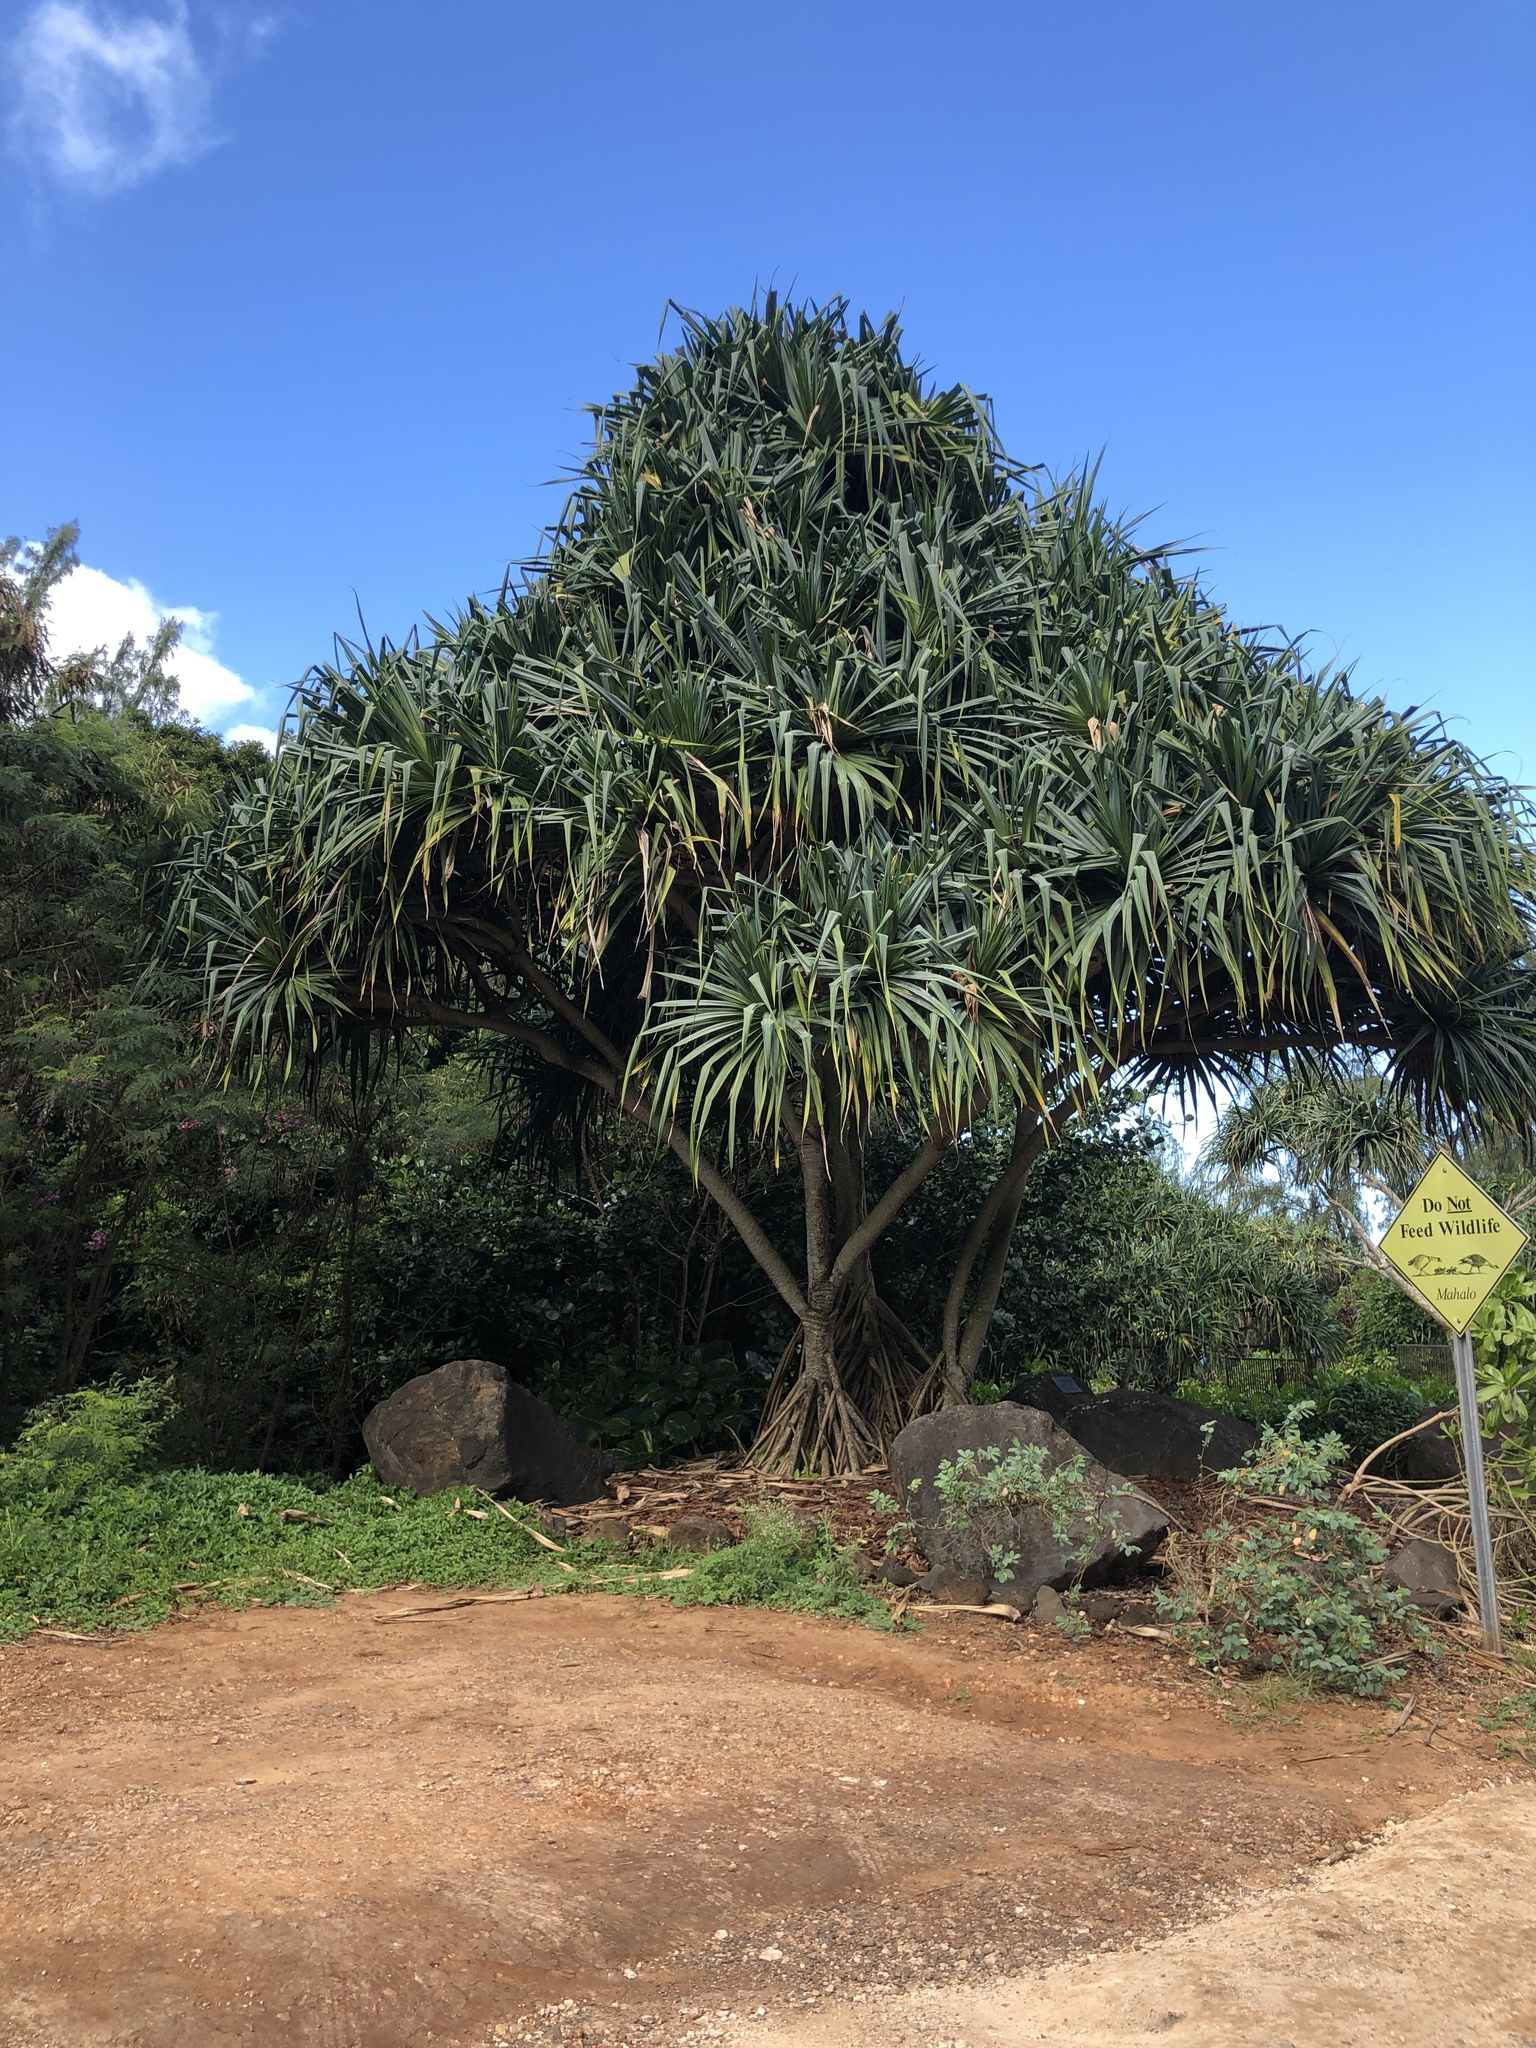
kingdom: Plantae
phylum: Tracheophyta
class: Liliopsida
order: Pandanales
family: Pandanaceae
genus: Pandanus
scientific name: Pandanus tectorius
